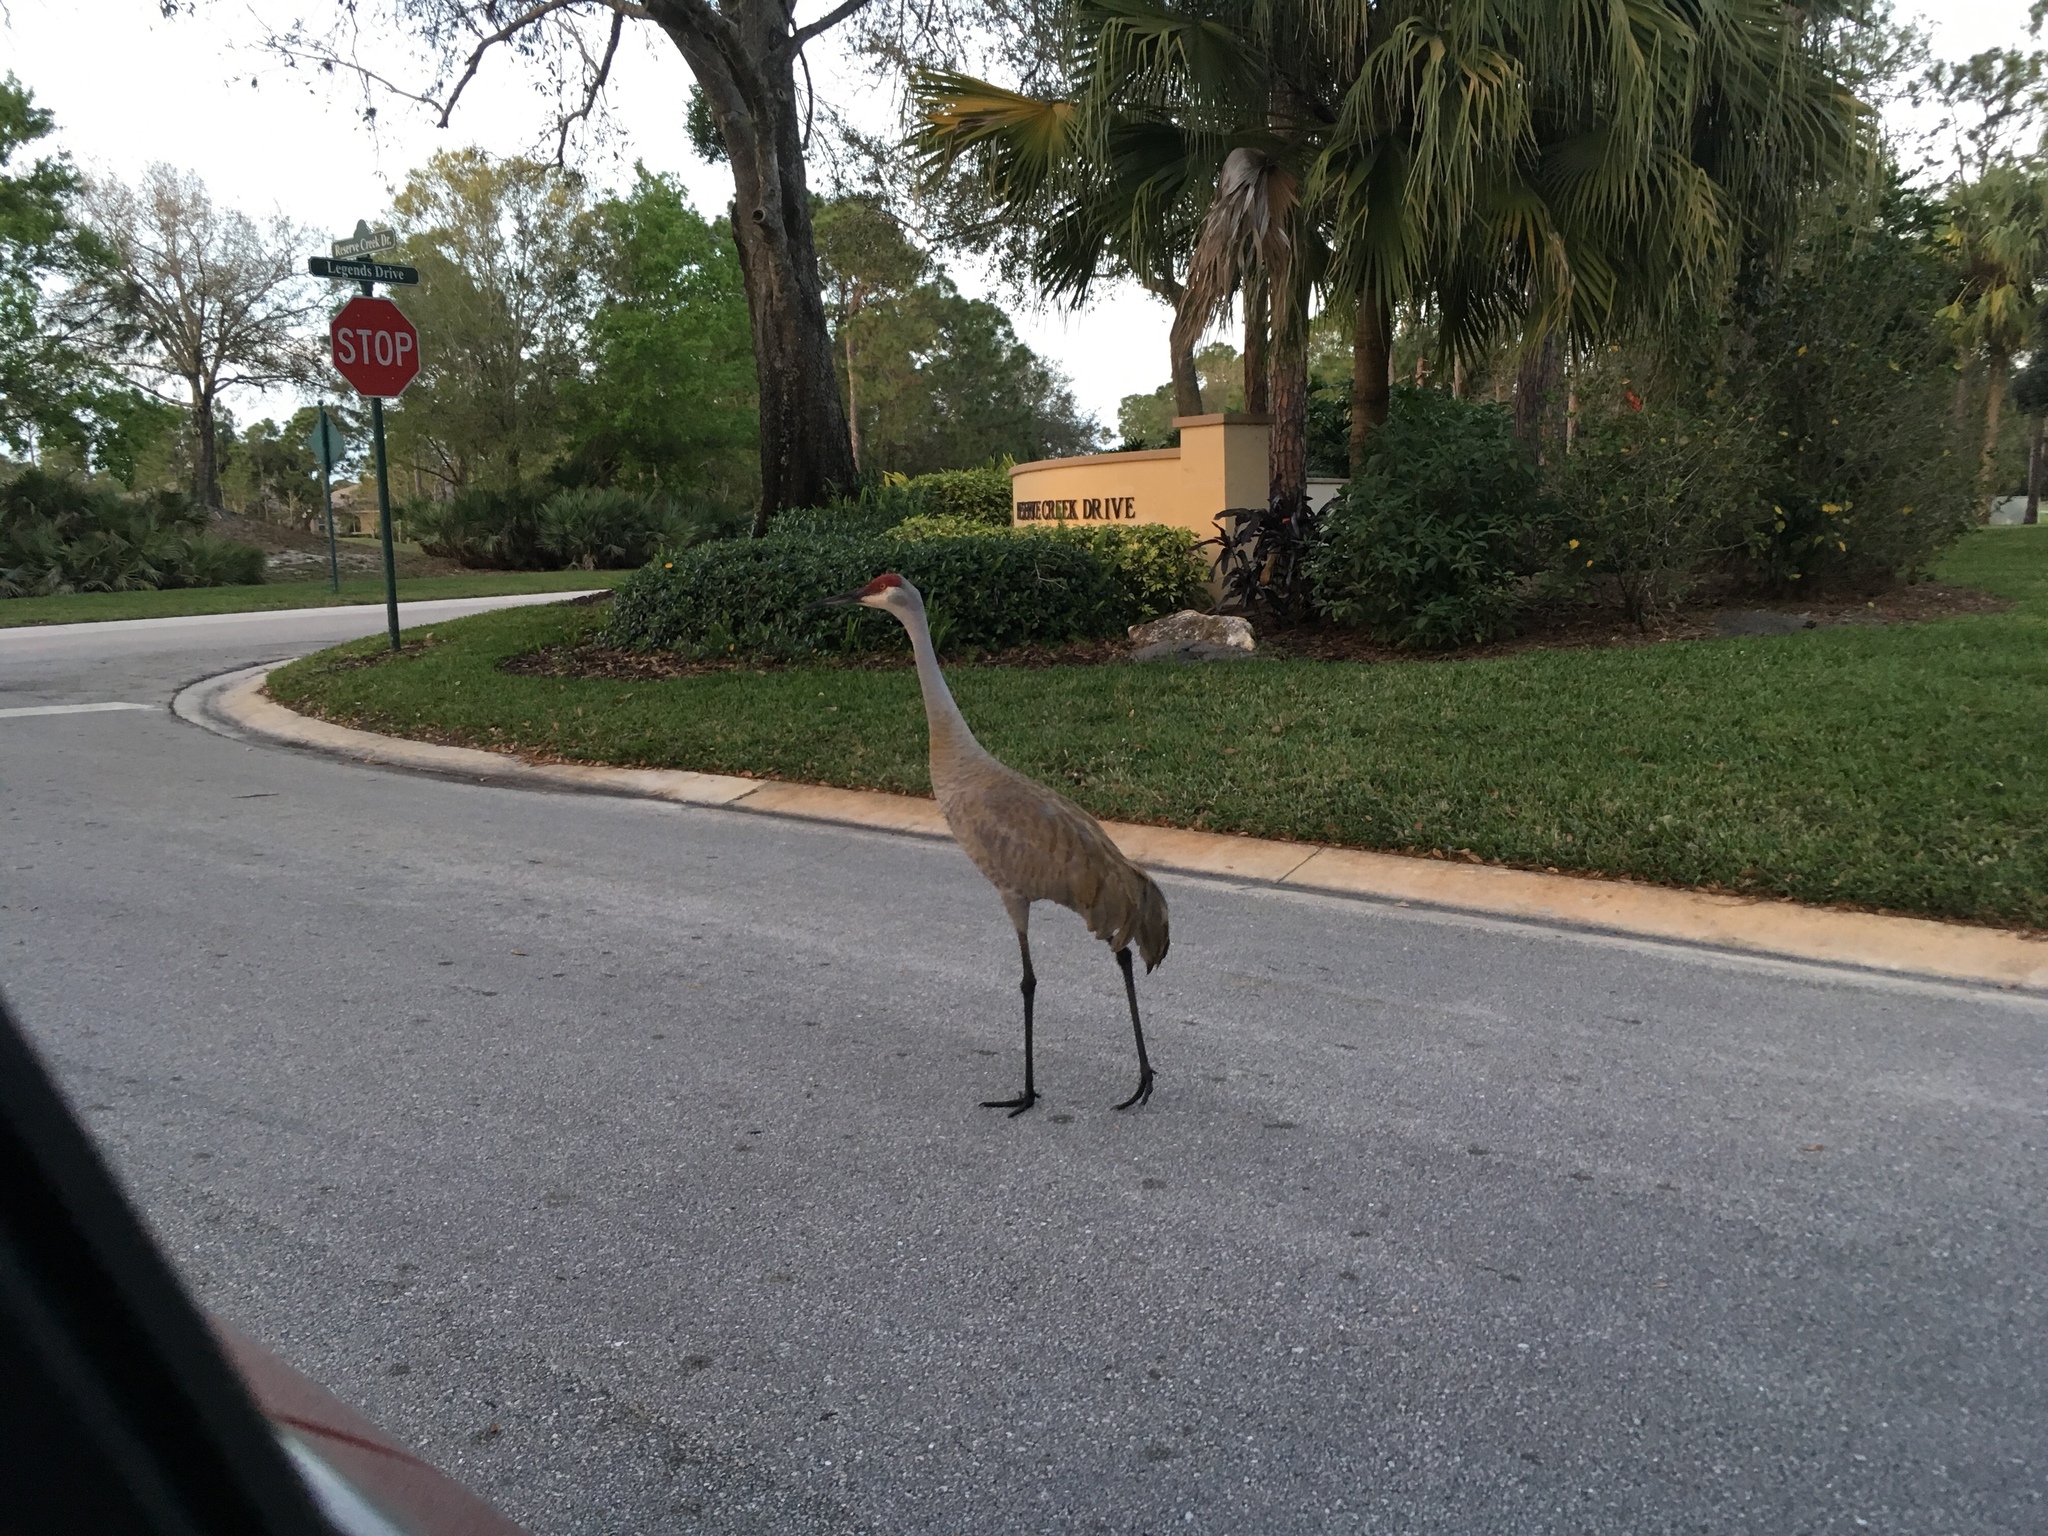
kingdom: Animalia
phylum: Chordata
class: Aves
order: Gruiformes
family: Gruidae
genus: Grus
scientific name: Grus canadensis
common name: Sandhill crane
